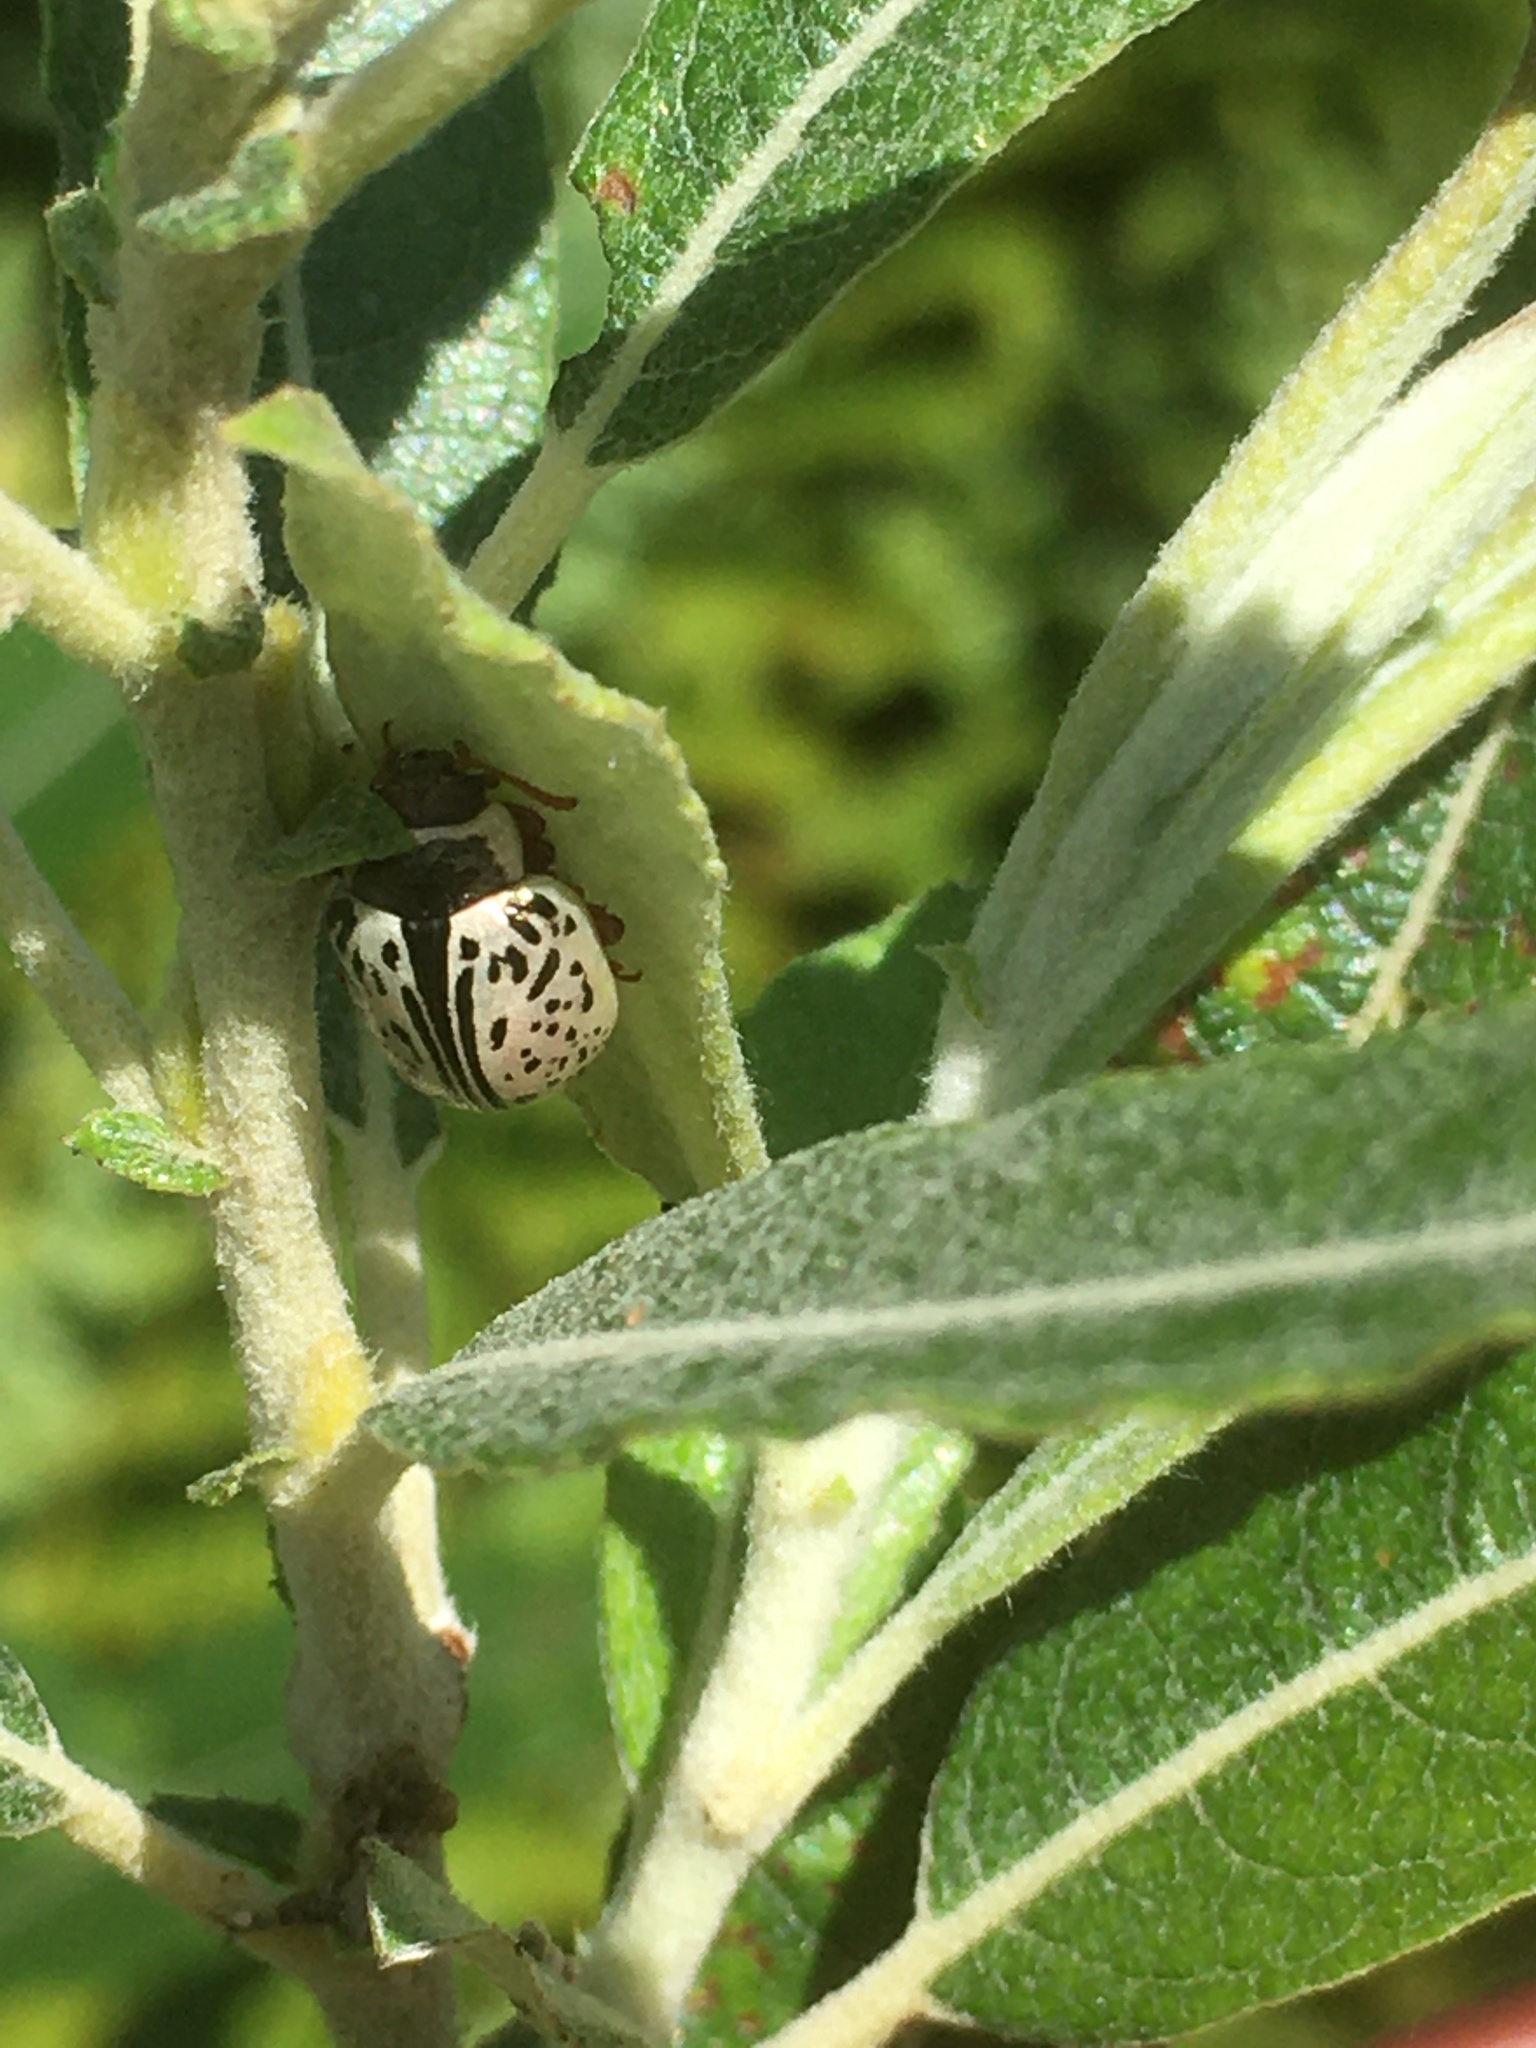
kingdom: Animalia
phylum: Arthropoda
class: Insecta
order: Coleoptera
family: Chrysomelidae
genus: Calligrapha
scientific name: Calligrapha multipunctata
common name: Common willow calligrapher beetle
